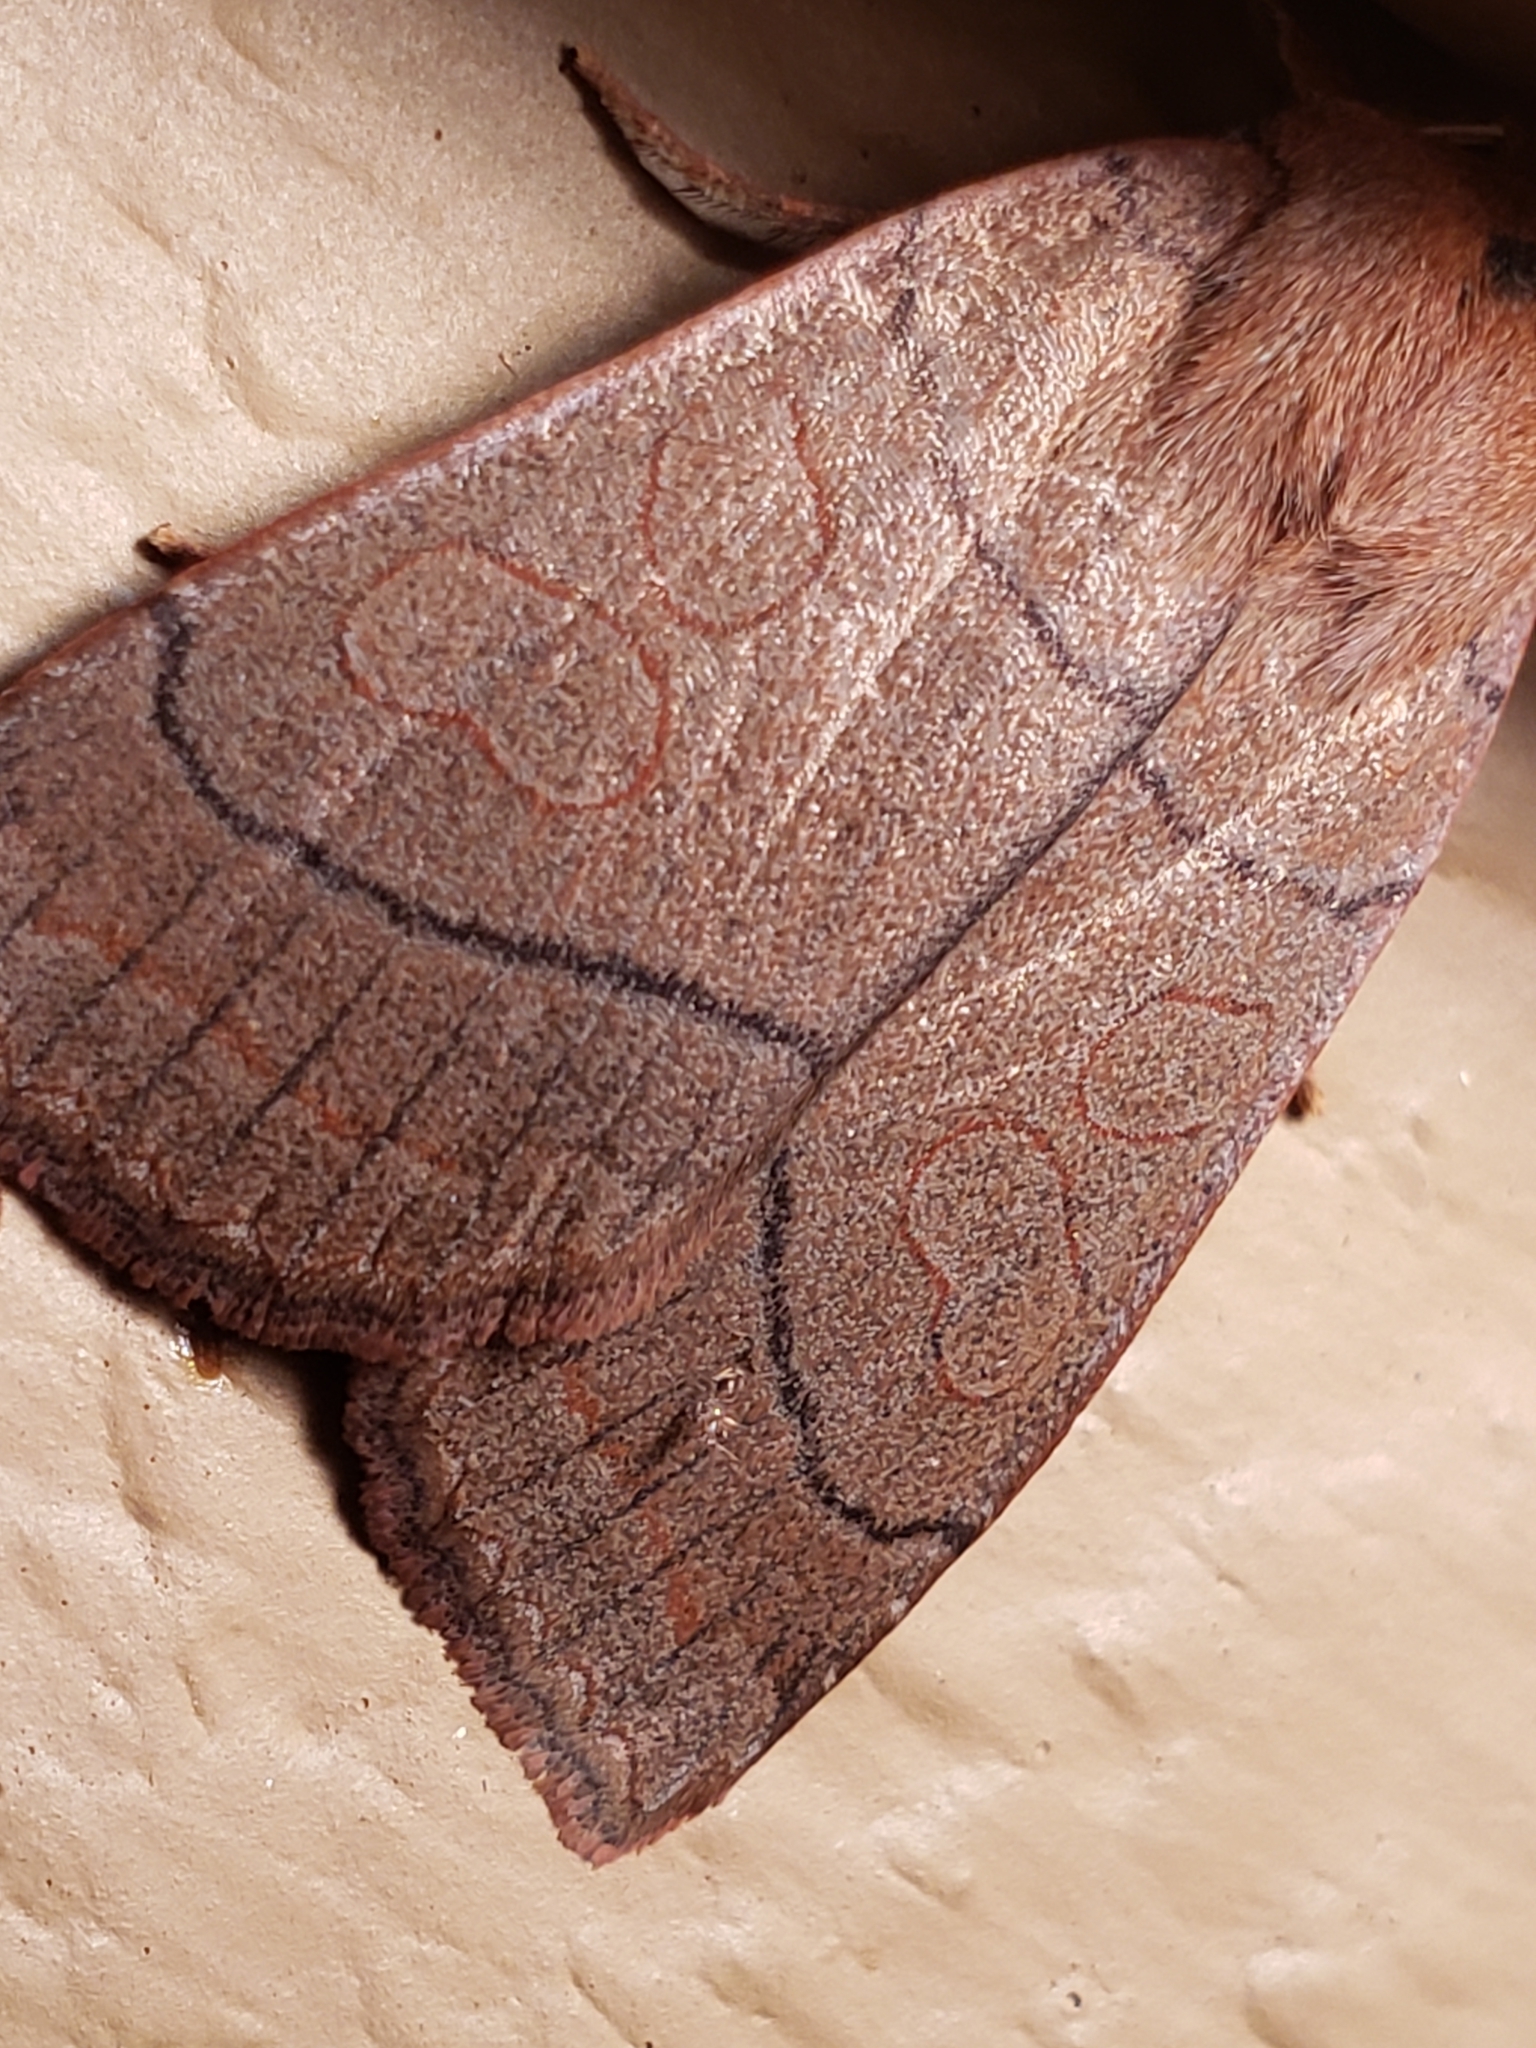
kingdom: Animalia
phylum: Arthropoda
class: Insecta
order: Lepidoptera
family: Noctuidae
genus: Metaxaglaea
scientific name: Metaxaglaea inulta
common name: Unsated sallow
